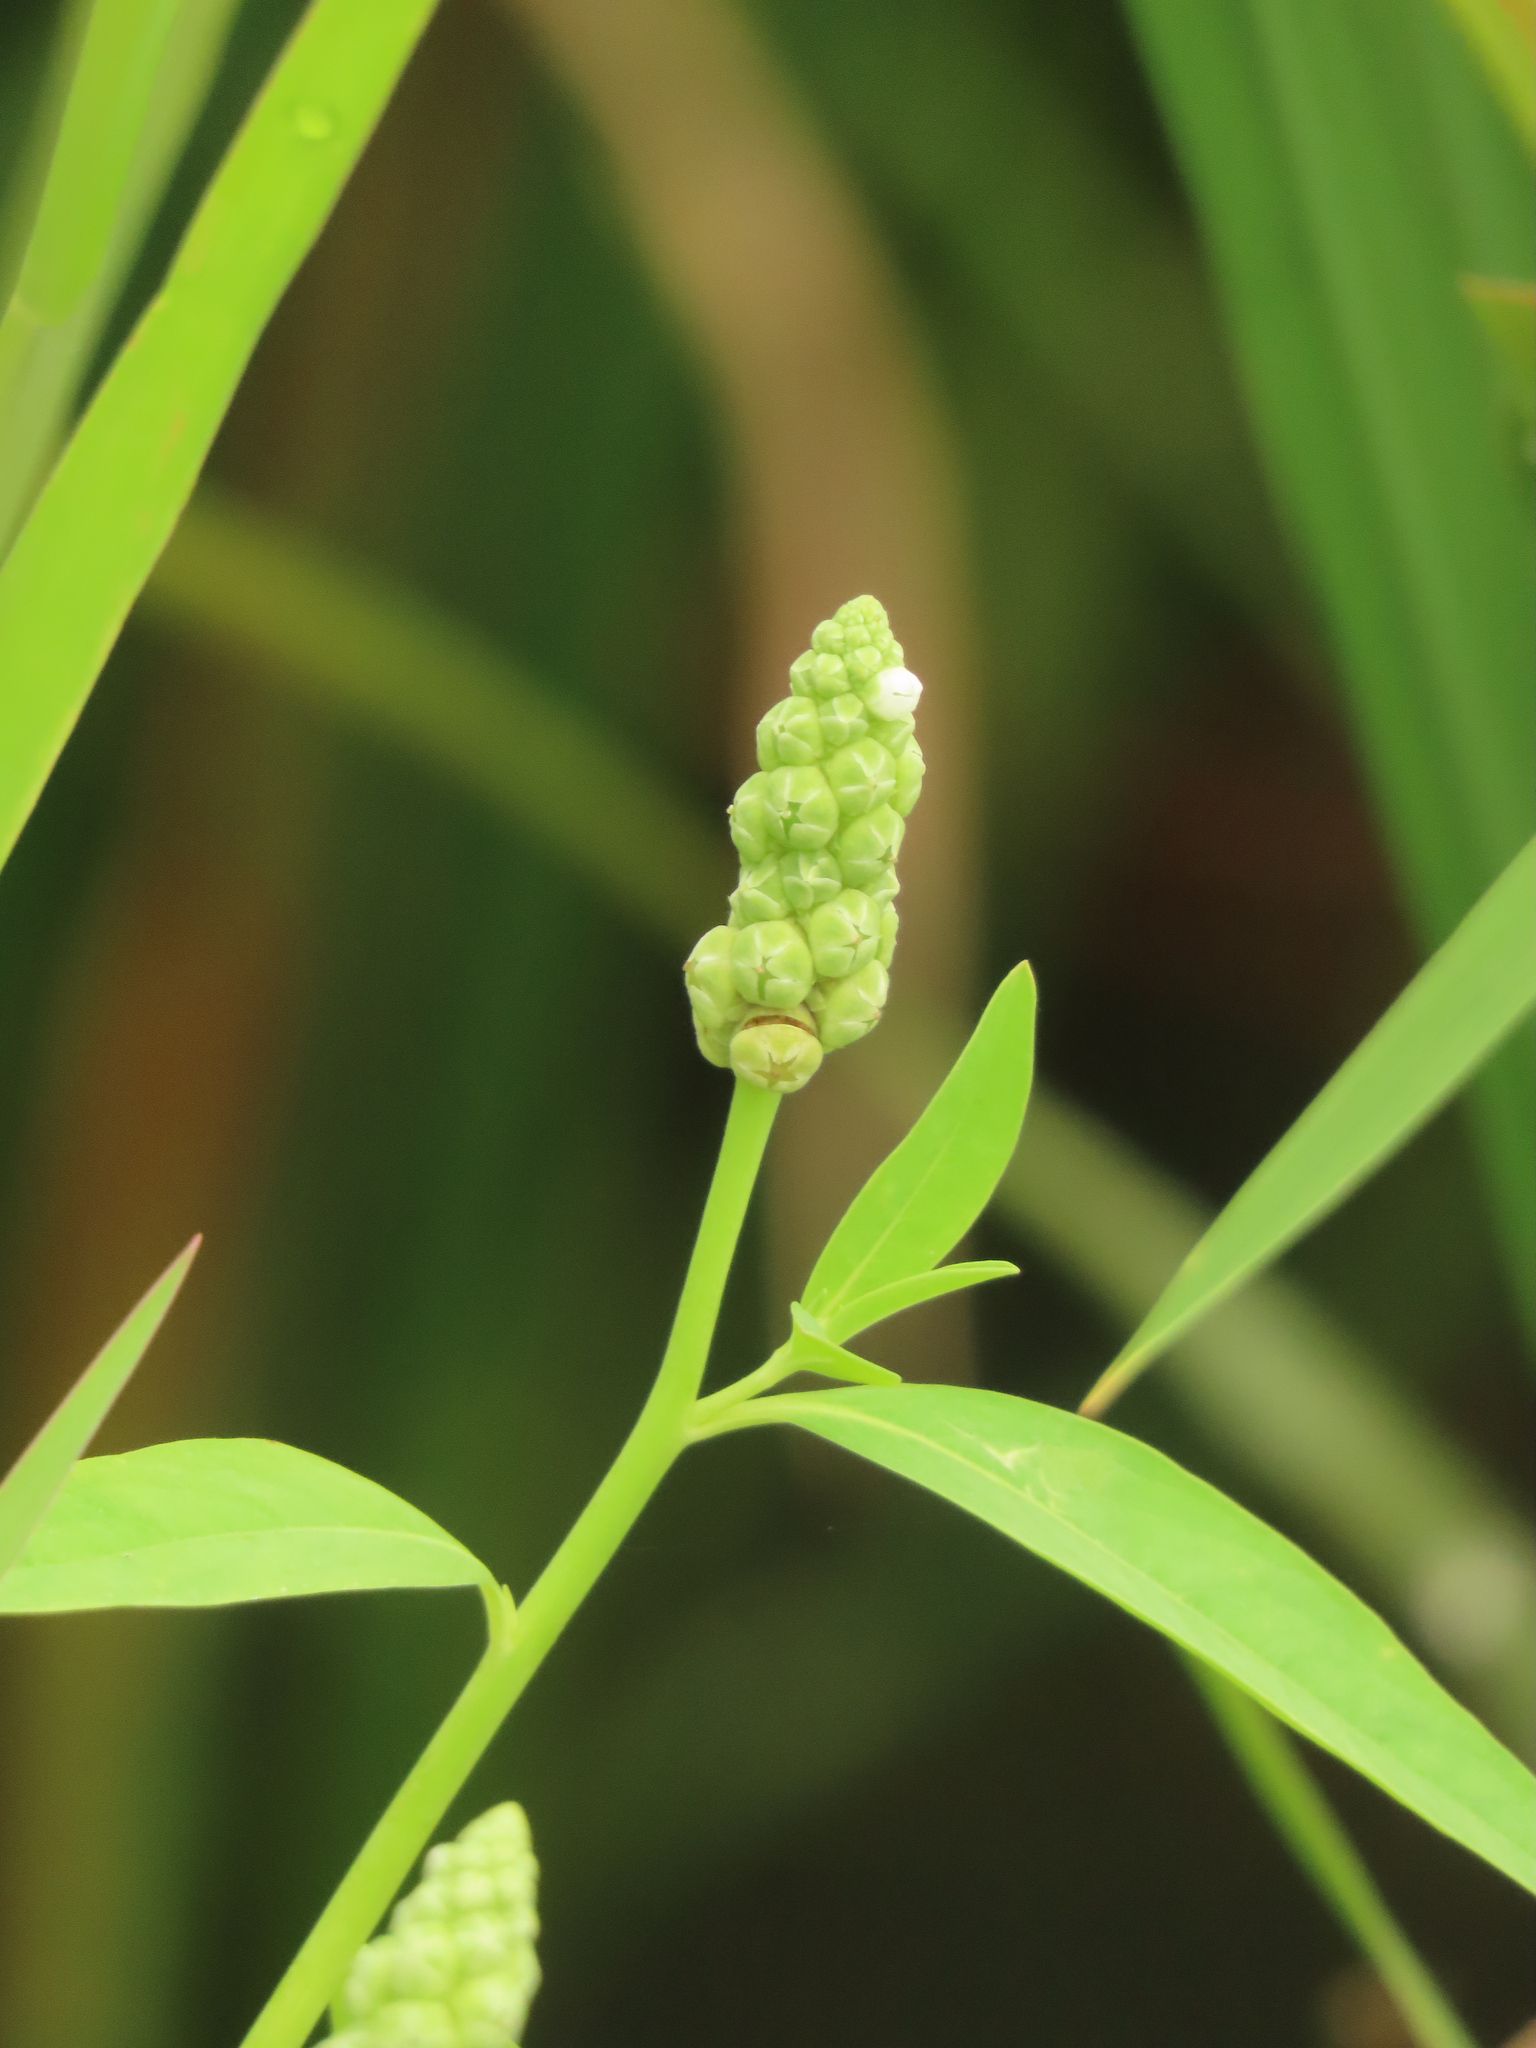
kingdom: Plantae
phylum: Tracheophyta
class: Magnoliopsida
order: Solanales
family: Sphenocleaceae
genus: Sphenoclea
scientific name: Sphenoclea zeylanica
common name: Chickenspike
